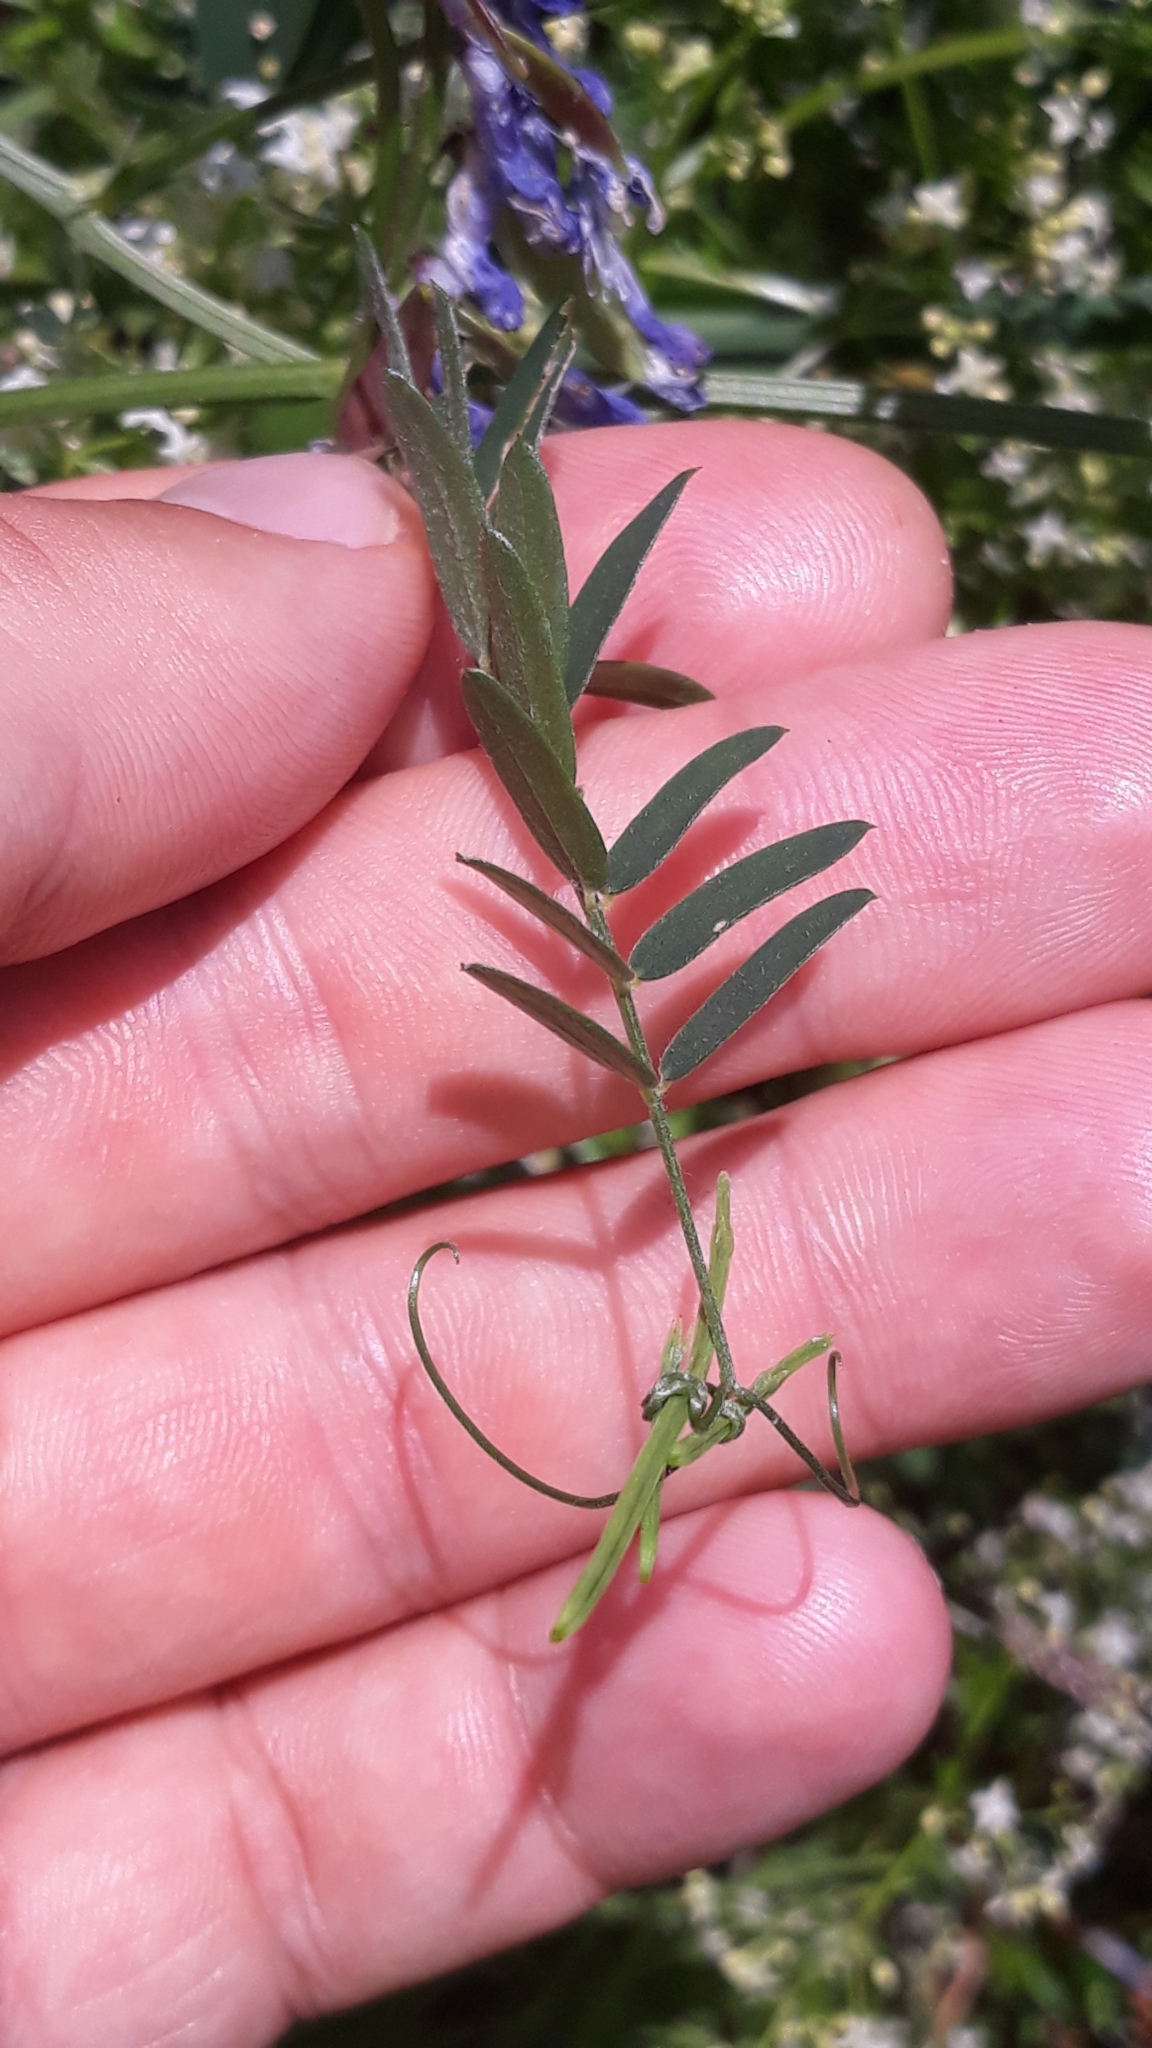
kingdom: Plantae
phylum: Tracheophyta
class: Magnoliopsida
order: Fabales
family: Fabaceae
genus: Vicia
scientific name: Vicia cracca
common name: Bird vetch
